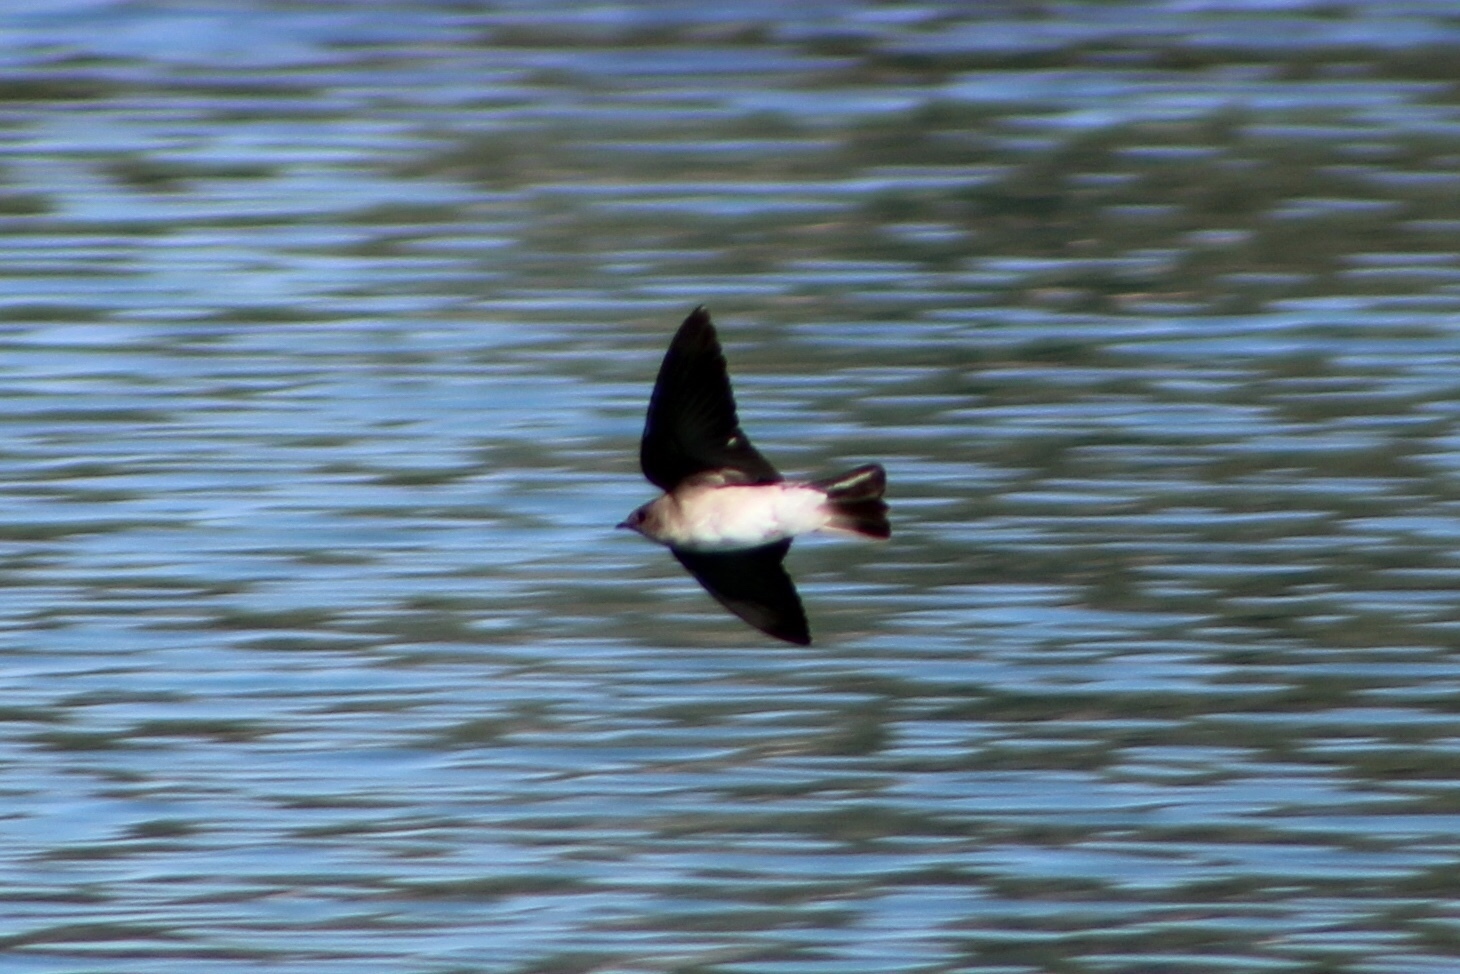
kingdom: Animalia
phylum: Chordata
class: Aves
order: Passeriformes
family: Hirundinidae
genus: Stelgidopteryx
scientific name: Stelgidopteryx serripennis
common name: Northern rough-winged swallow
